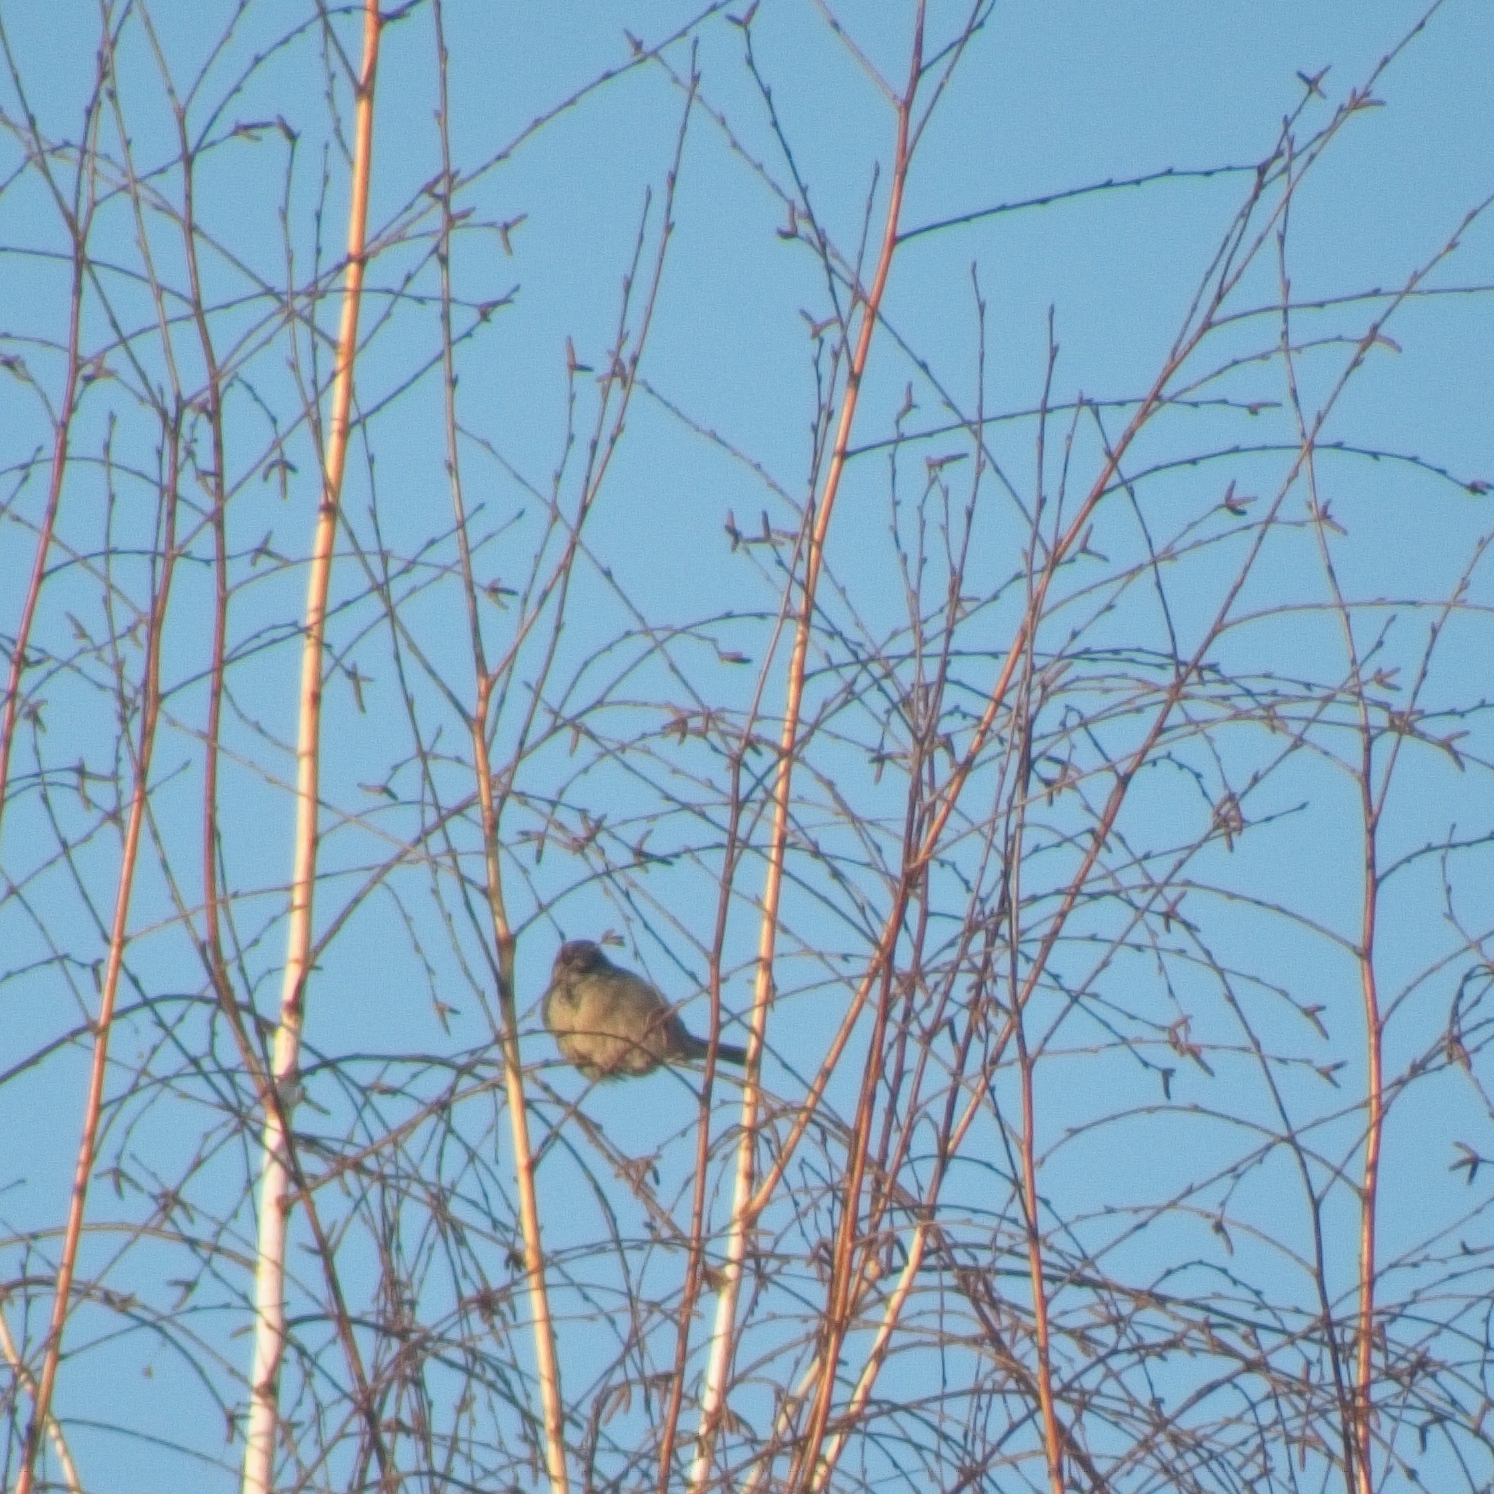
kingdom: Animalia
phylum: Chordata
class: Aves
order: Passeriformes
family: Passeridae
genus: Passer
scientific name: Passer montanus
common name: Eurasian tree sparrow
